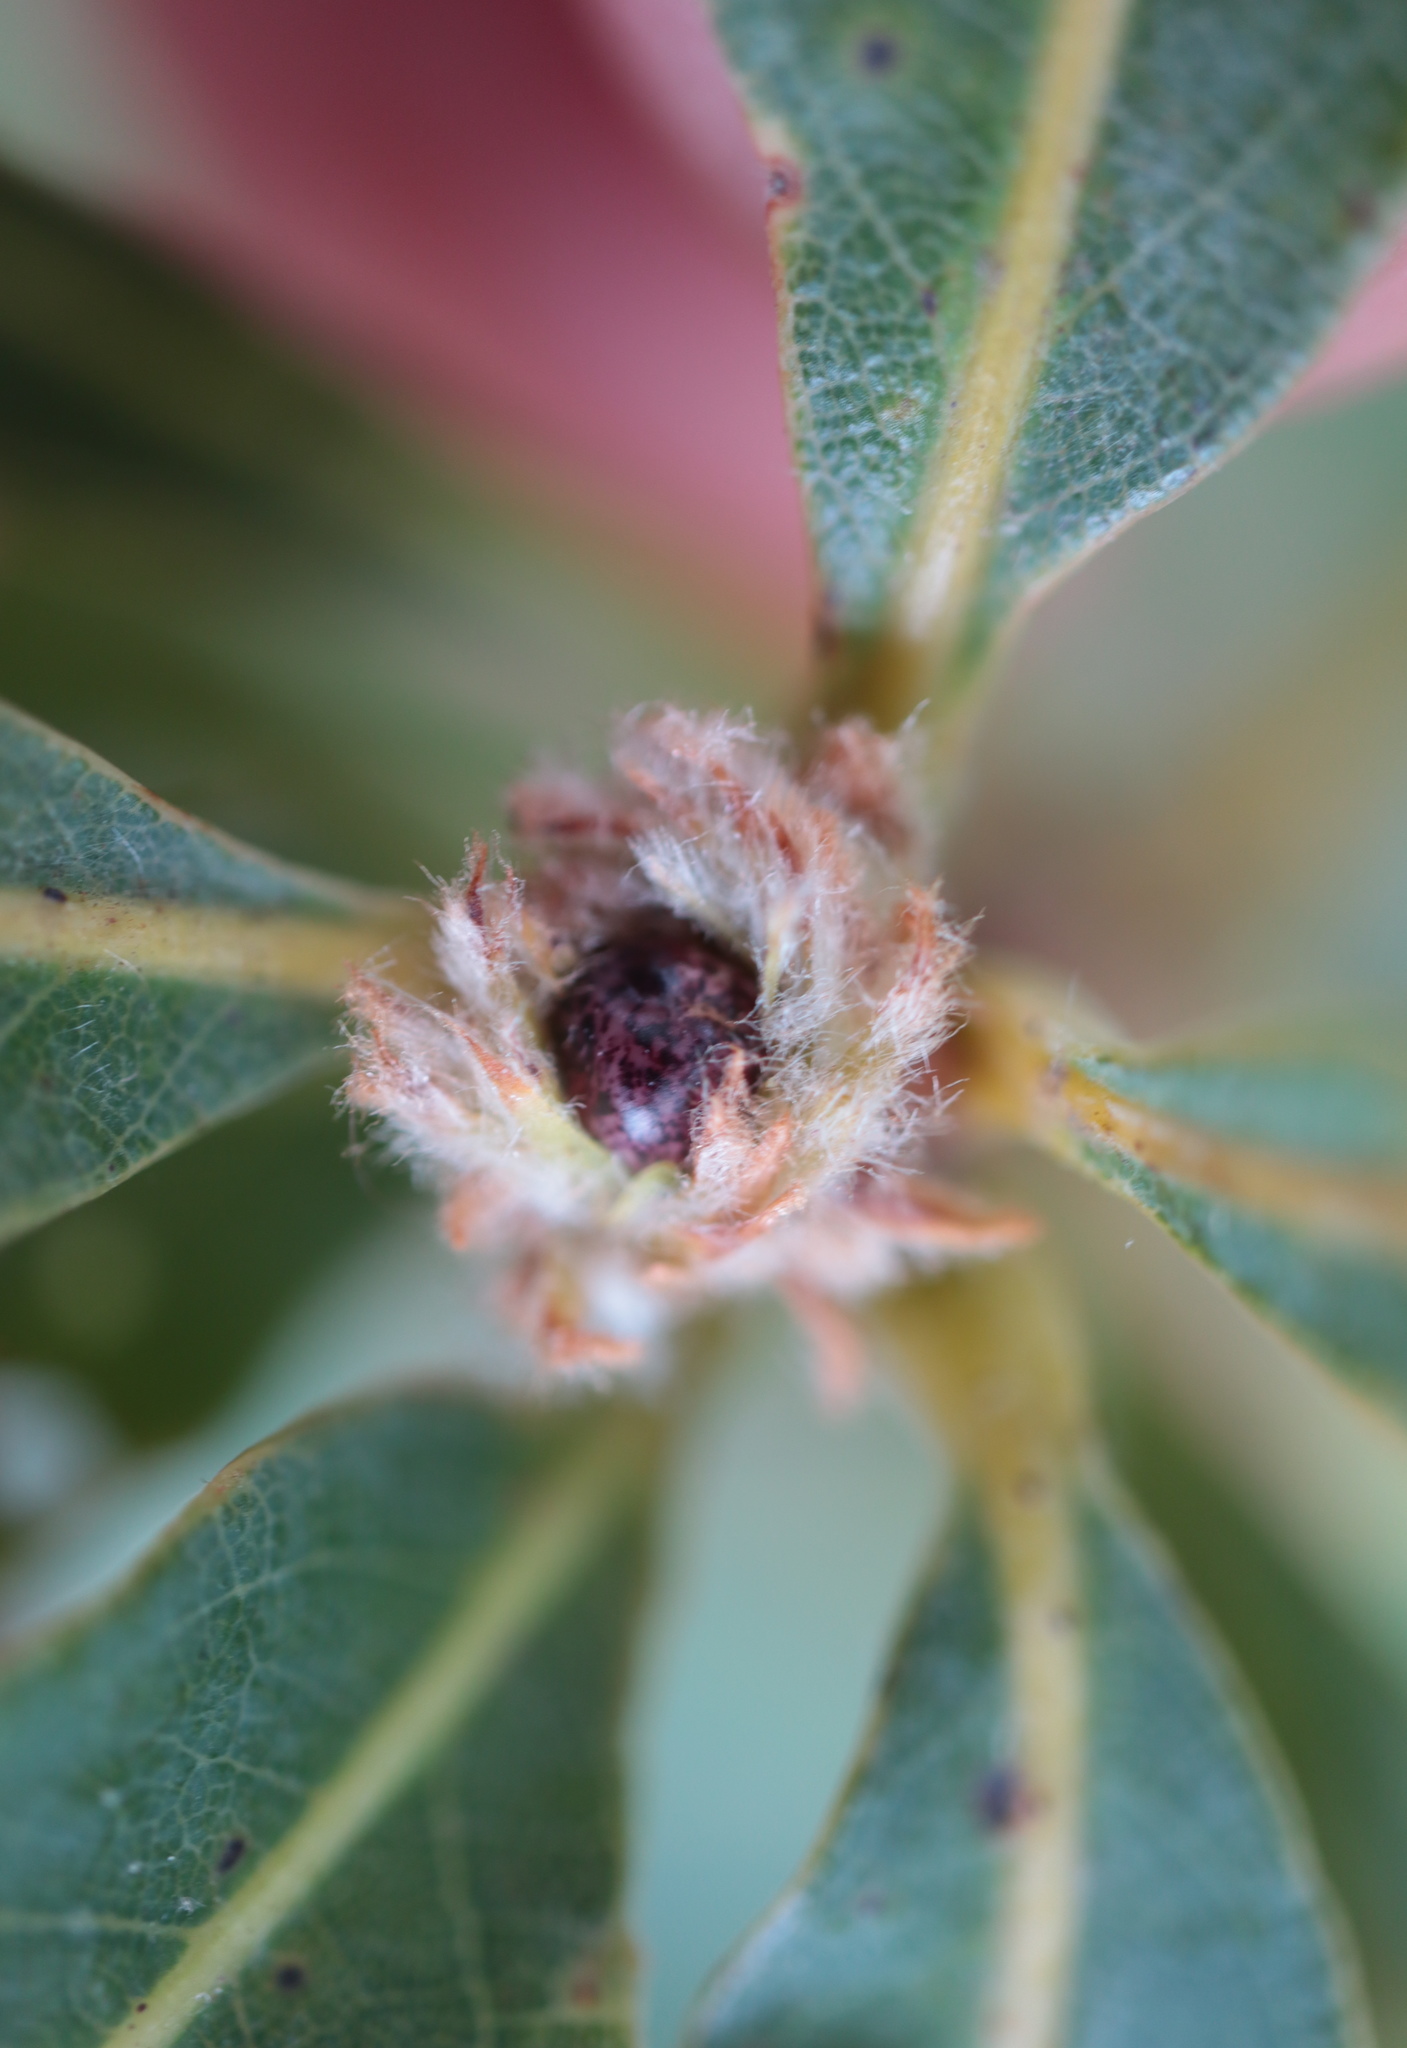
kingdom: Animalia
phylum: Arthropoda
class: Insecta
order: Hymenoptera
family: Cynipidae
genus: Andricus
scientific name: Andricus
